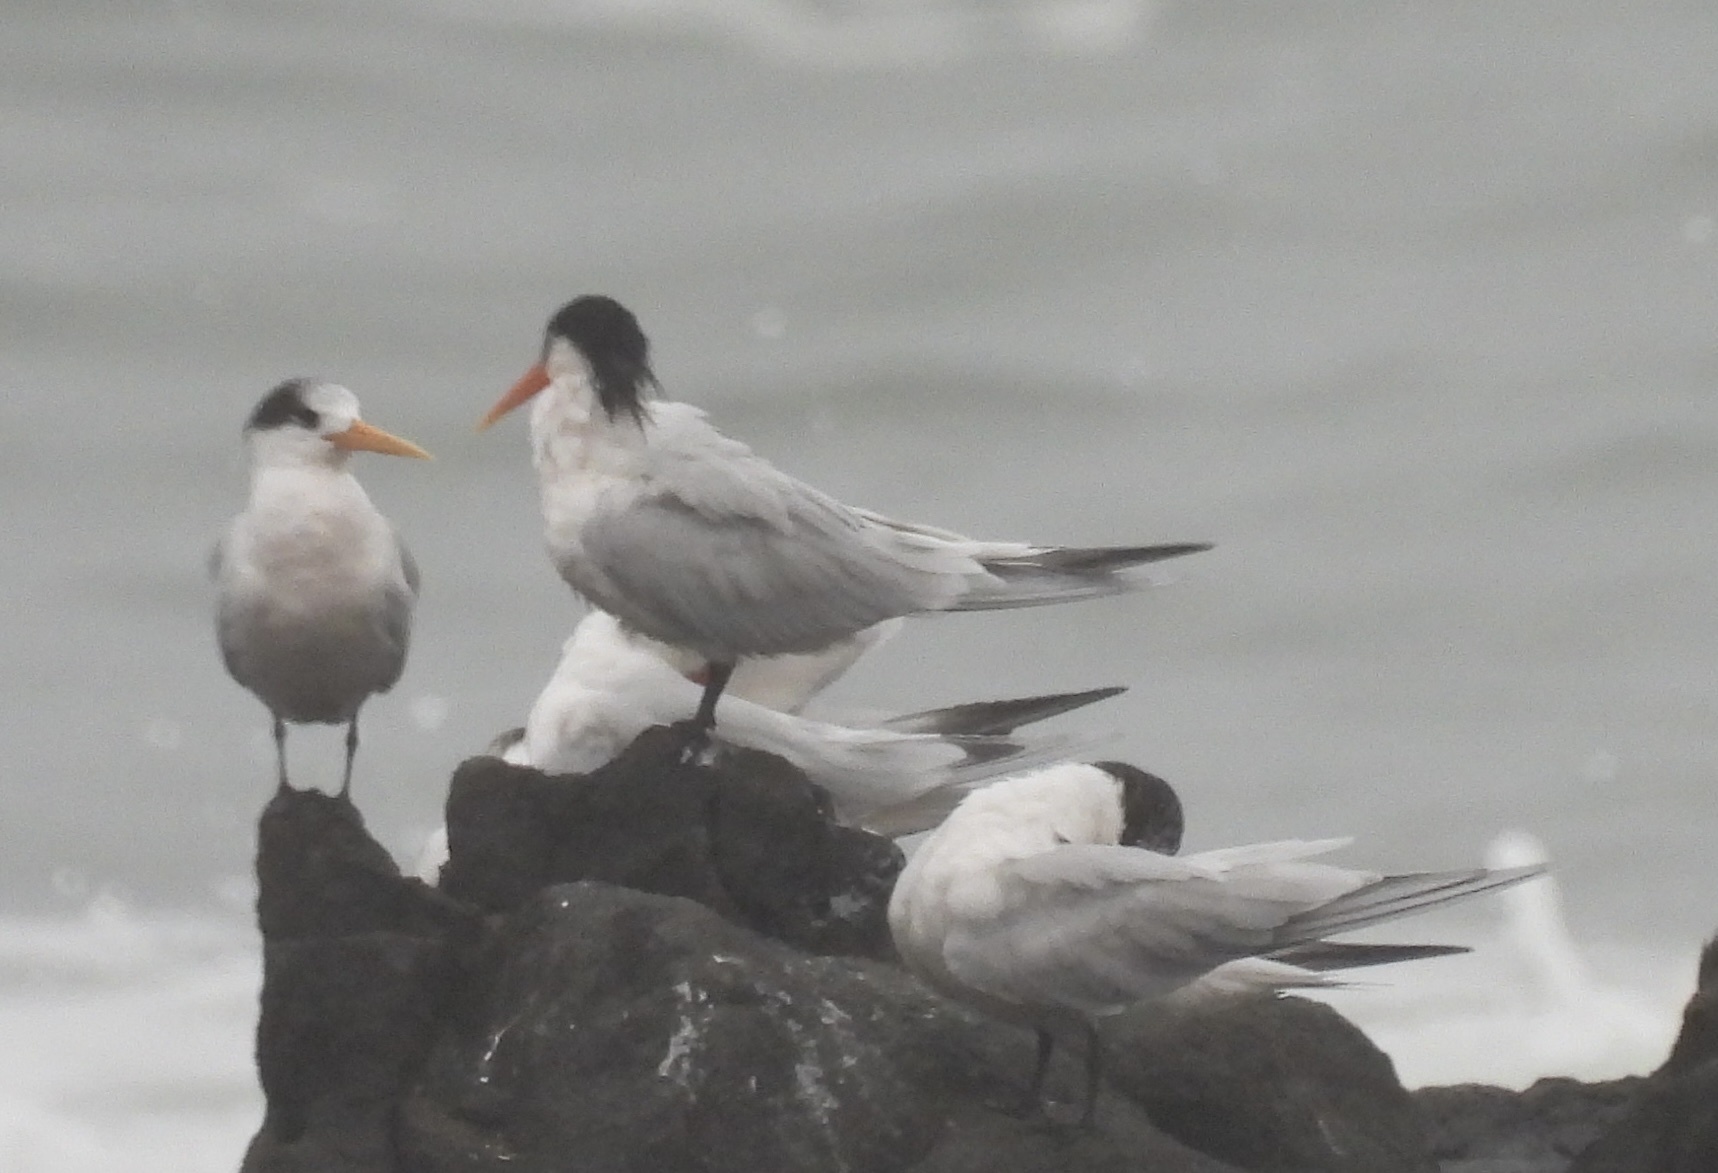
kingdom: Animalia
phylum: Chordata
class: Aves
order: Charadriiformes
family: Laridae
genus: Thalasseus
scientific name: Thalasseus elegans
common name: Elegant tern
